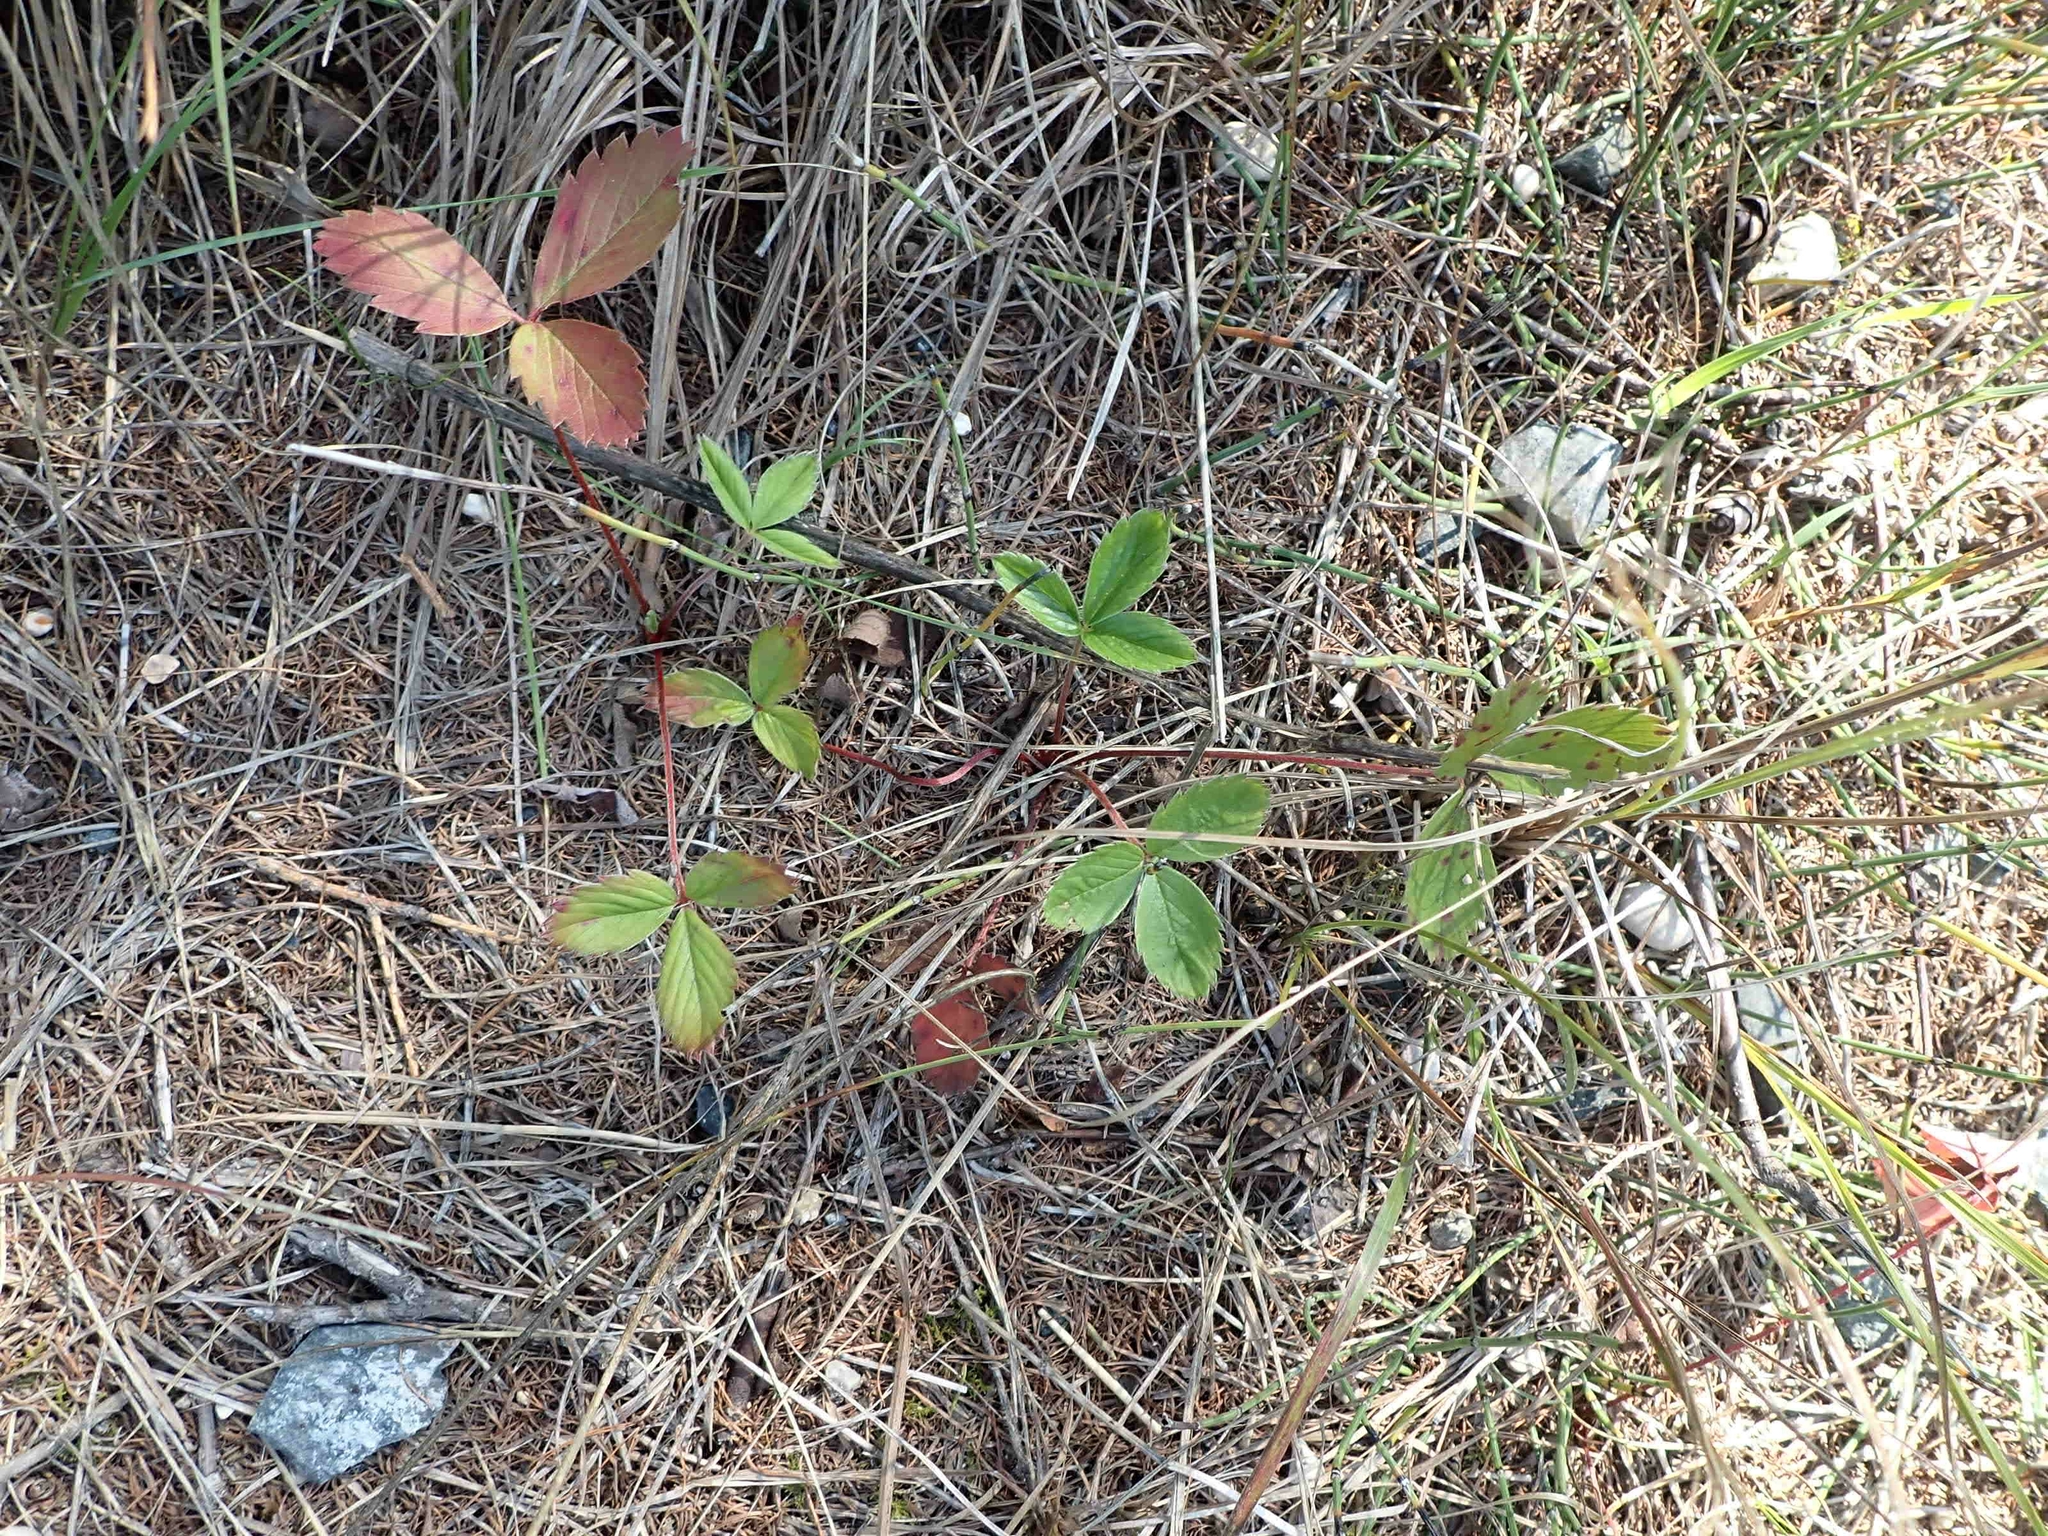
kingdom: Plantae
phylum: Tracheophyta
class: Magnoliopsida
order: Rosales
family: Rosaceae
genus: Fragaria
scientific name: Fragaria virginiana
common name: Thickleaved wild strawberry
